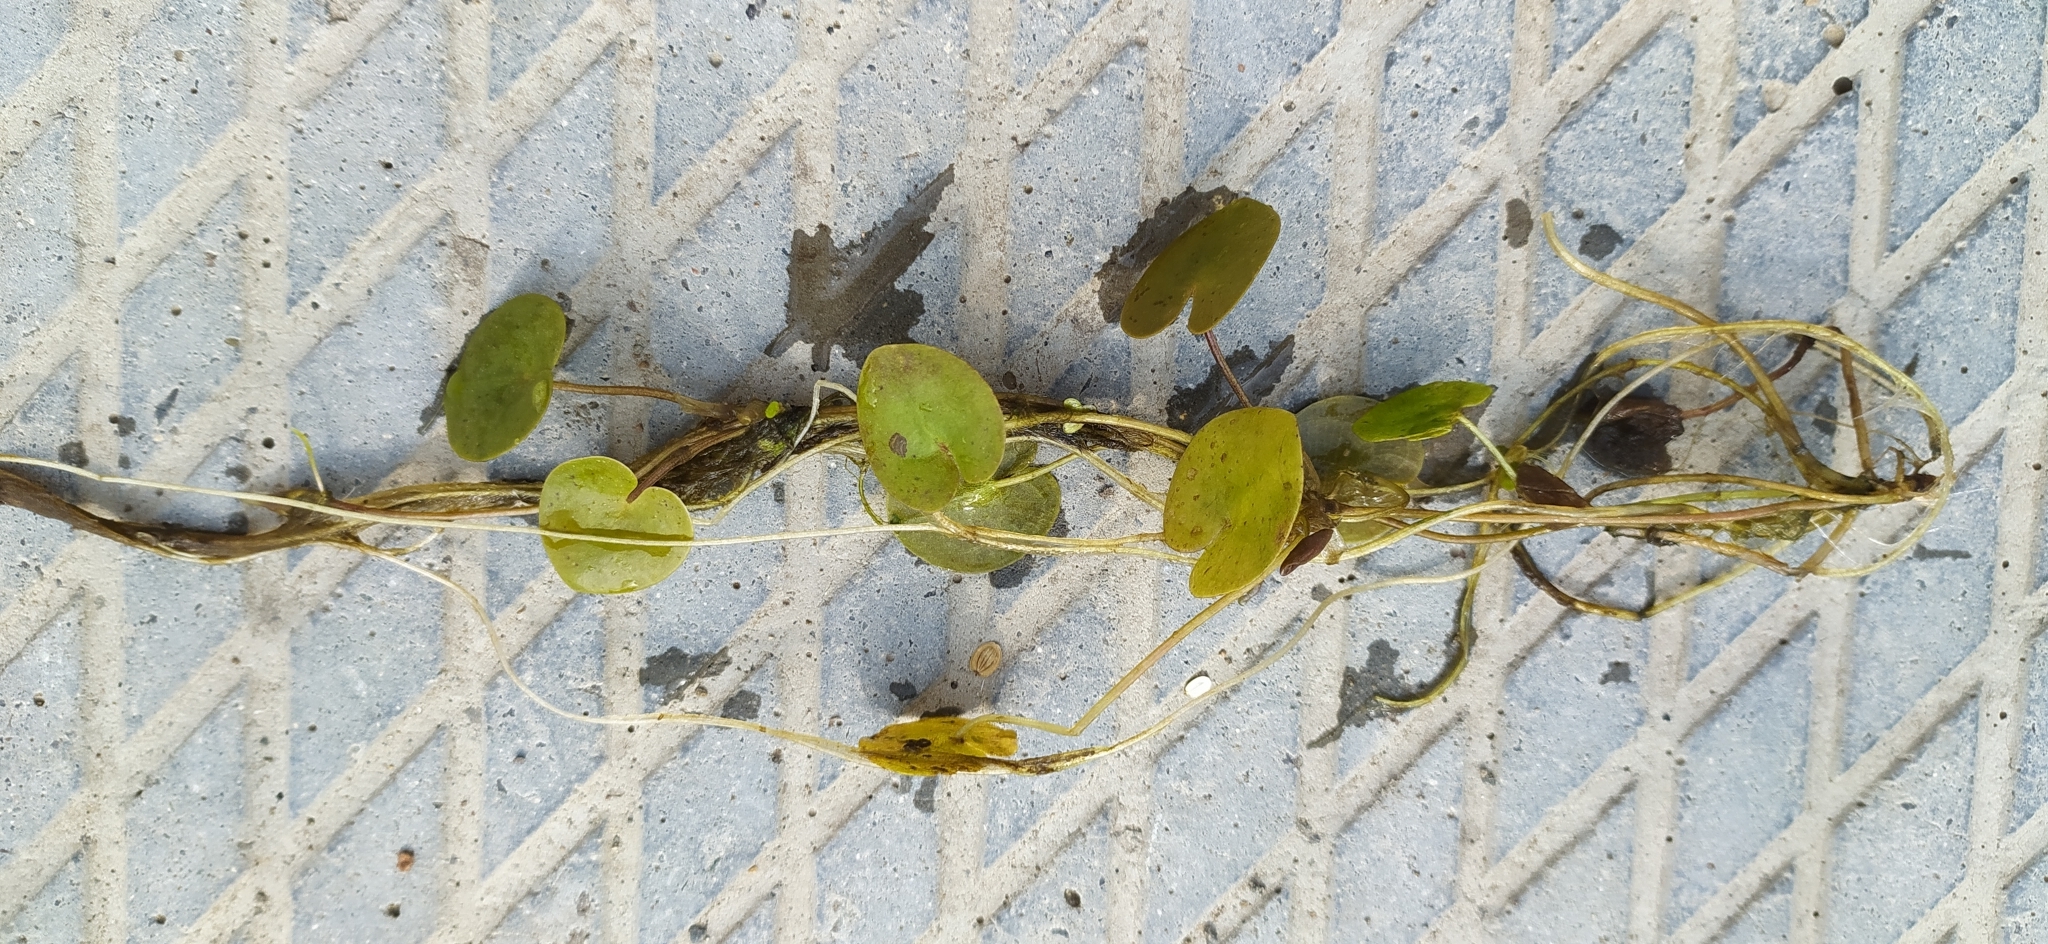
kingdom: Plantae
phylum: Tracheophyta
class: Liliopsida
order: Alismatales
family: Hydrocharitaceae
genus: Hydrocharis
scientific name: Hydrocharis morsus-ranae
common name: Frogbit
